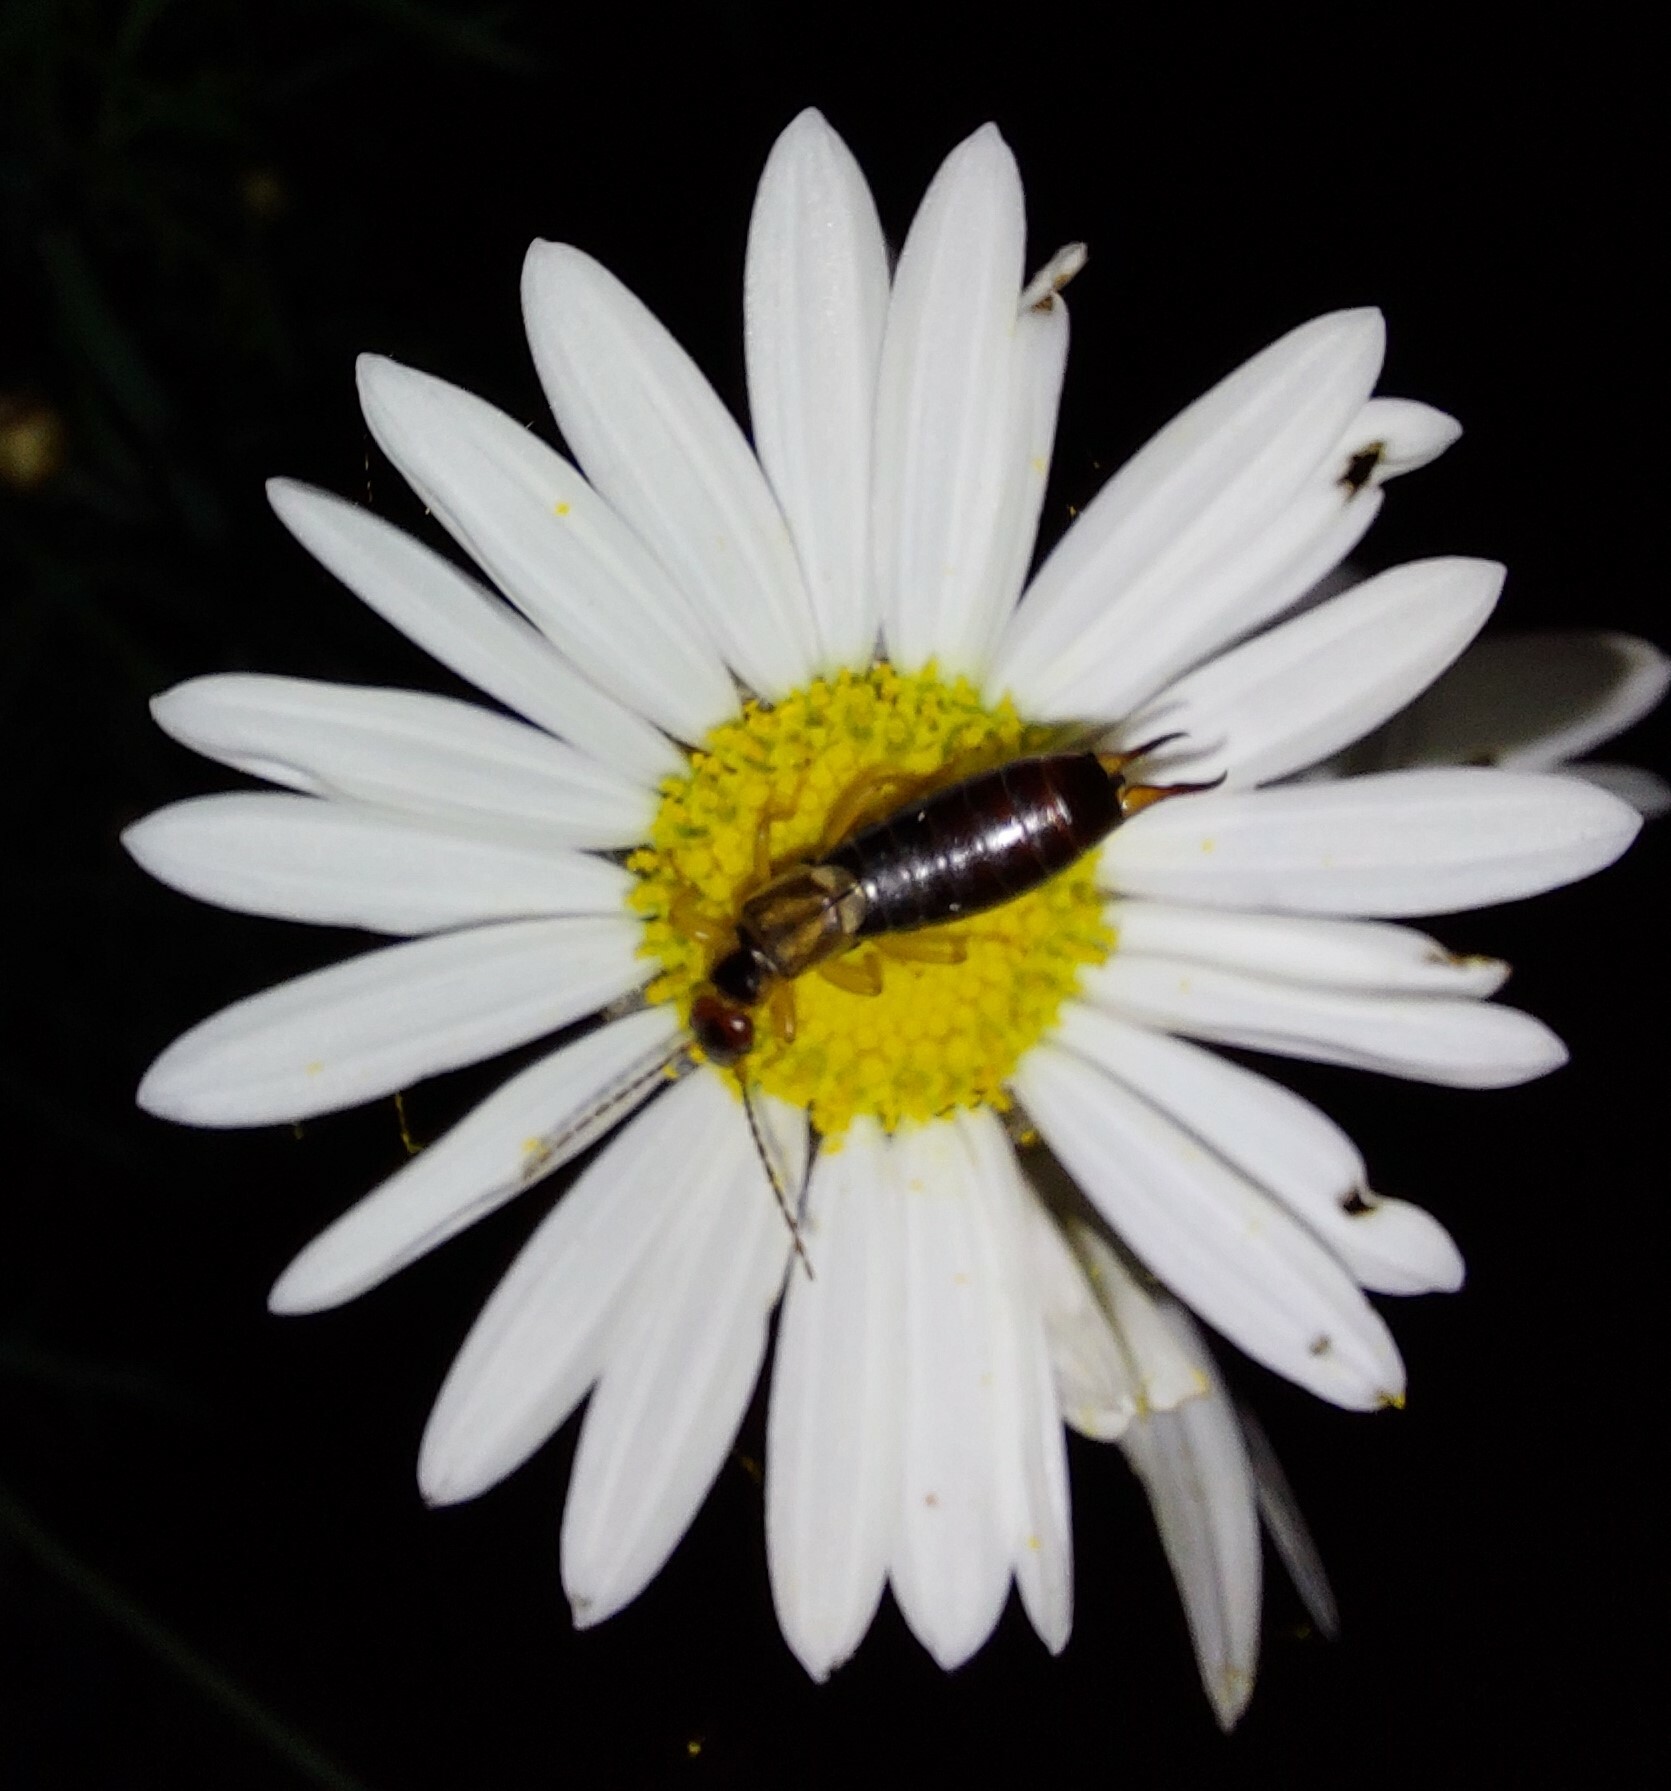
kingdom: Animalia
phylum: Arthropoda
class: Insecta
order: Dermaptera
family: Forficulidae
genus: Forficula
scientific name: Forficula dentata
